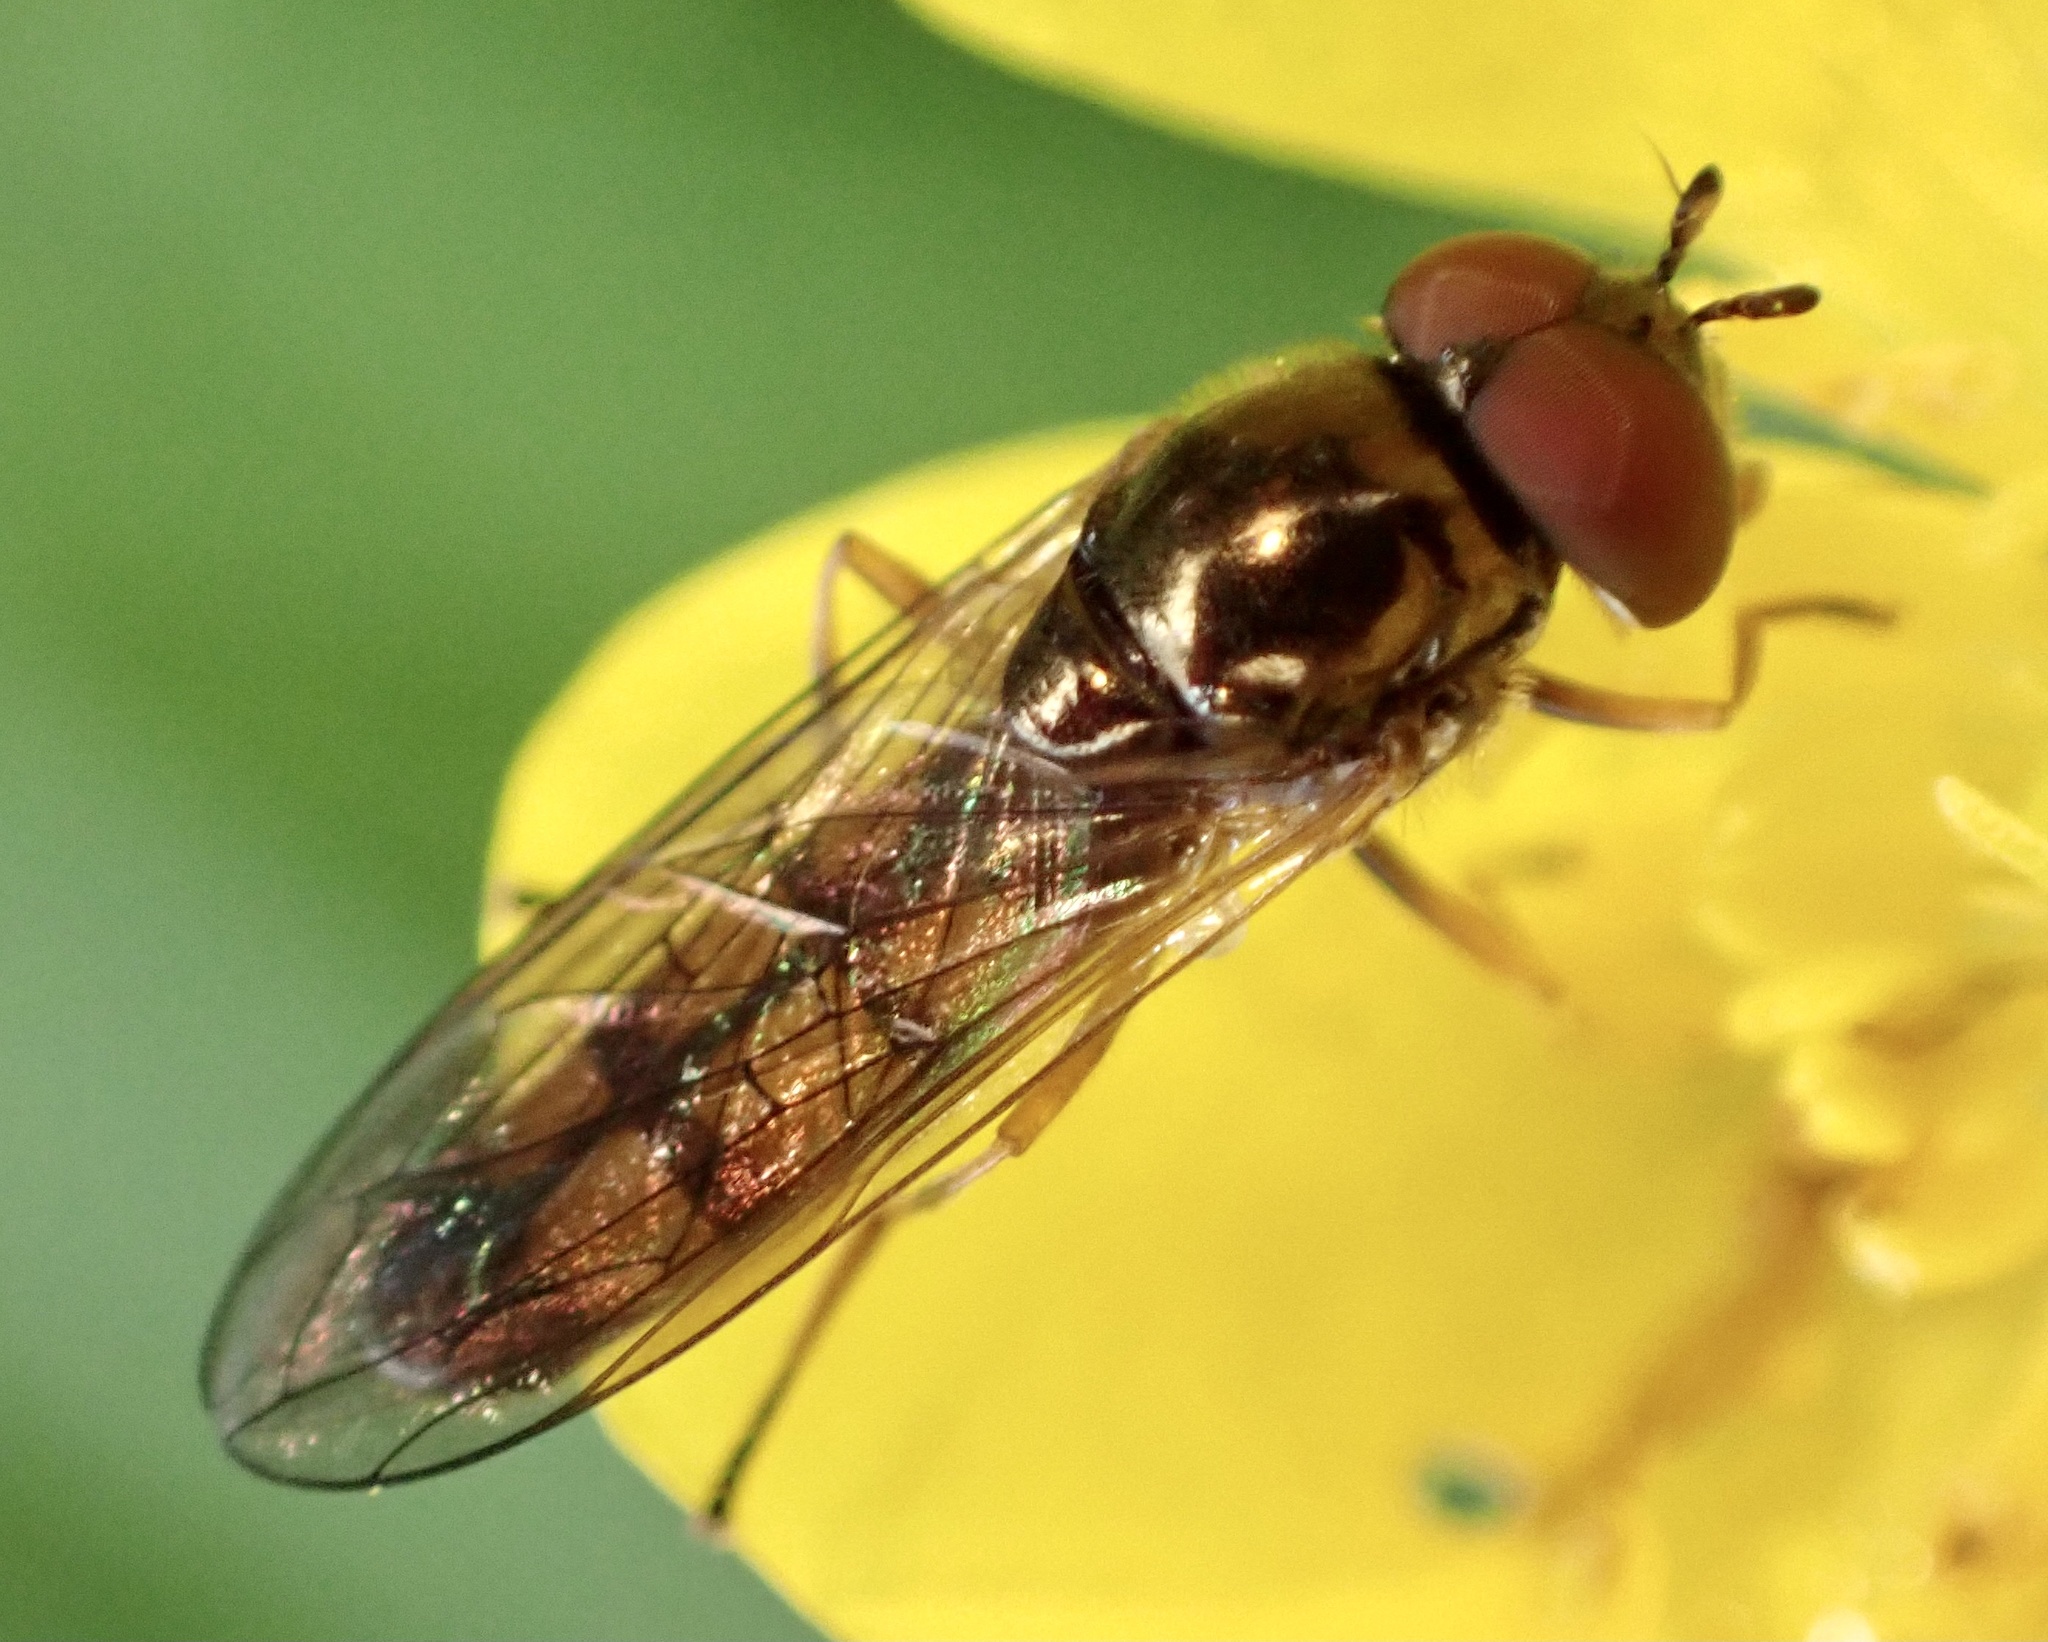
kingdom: Animalia
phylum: Arthropoda
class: Insecta
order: Diptera
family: Syrphidae
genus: Melanostoma
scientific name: Melanostoma mellina
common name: Hover fly
